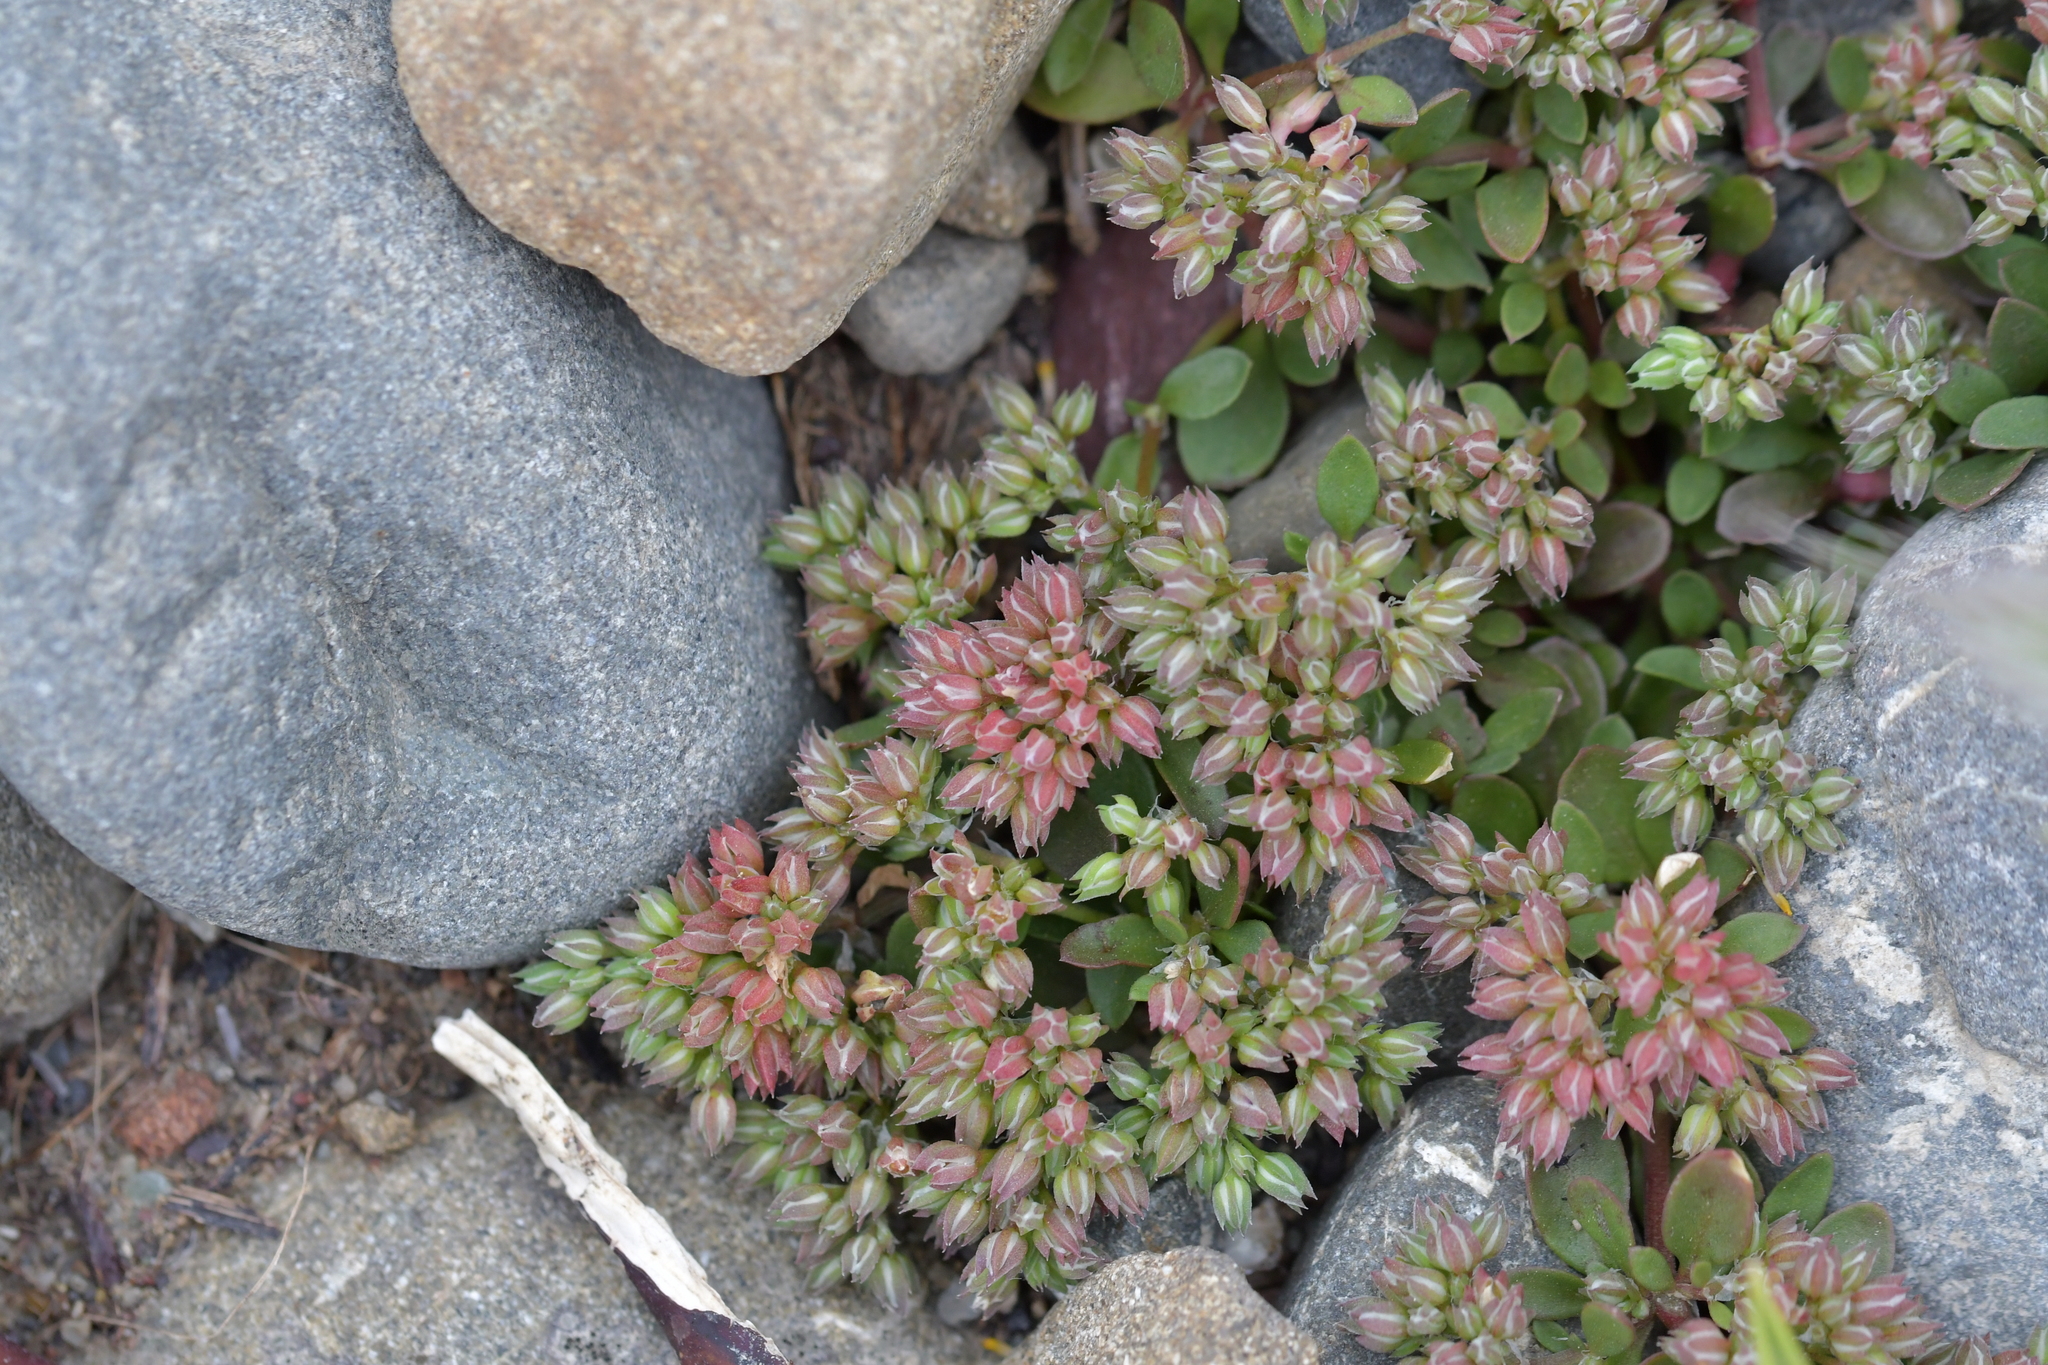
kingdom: Plantae
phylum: Tracheophyta
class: Magnoliopsida
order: Caryophyllales
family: Caryophyllaceae
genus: Polycarpon
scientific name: Polycarpon tetraphyllum
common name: Four-leaved all-seed
